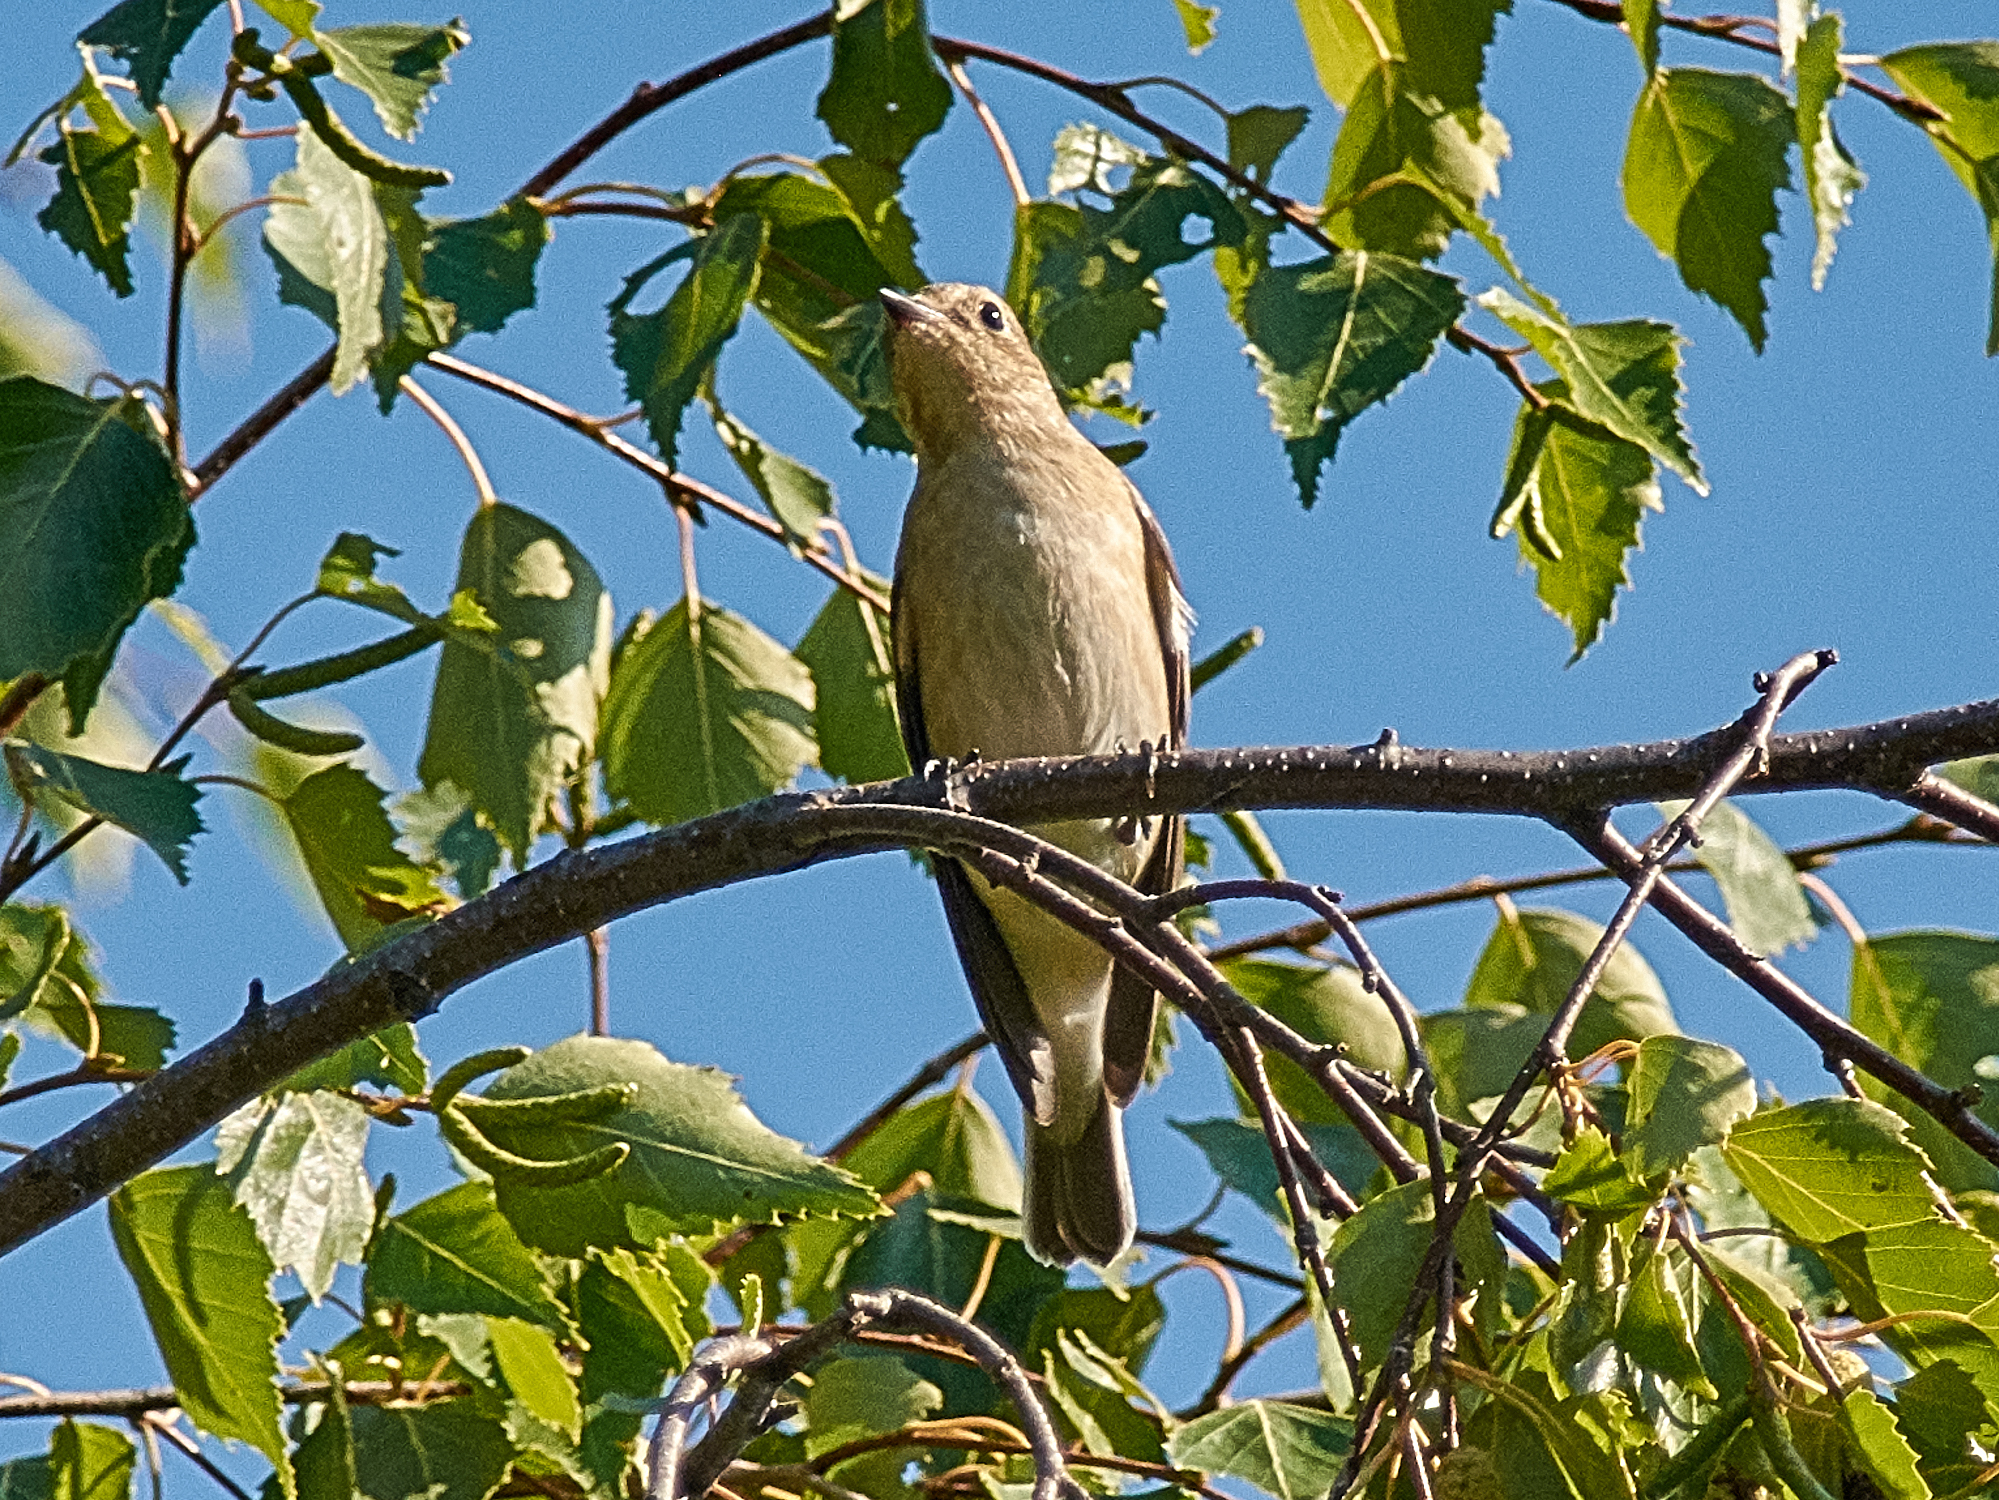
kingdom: Animalia
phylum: Chordata
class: Aves
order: Passeriformes
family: Muscicapidae
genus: Ficedula
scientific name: Ficedula hypoleuca
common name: European pied flycatcher
